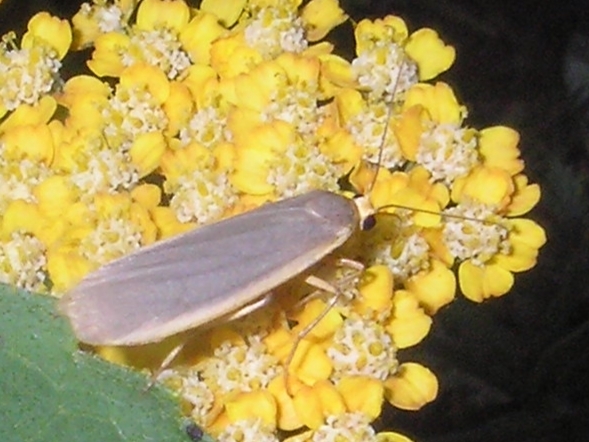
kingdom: Animalia
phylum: Arthropoda
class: Insecta
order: Lepidoptera
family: Erebidae
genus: Collita
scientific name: Collita griseola
